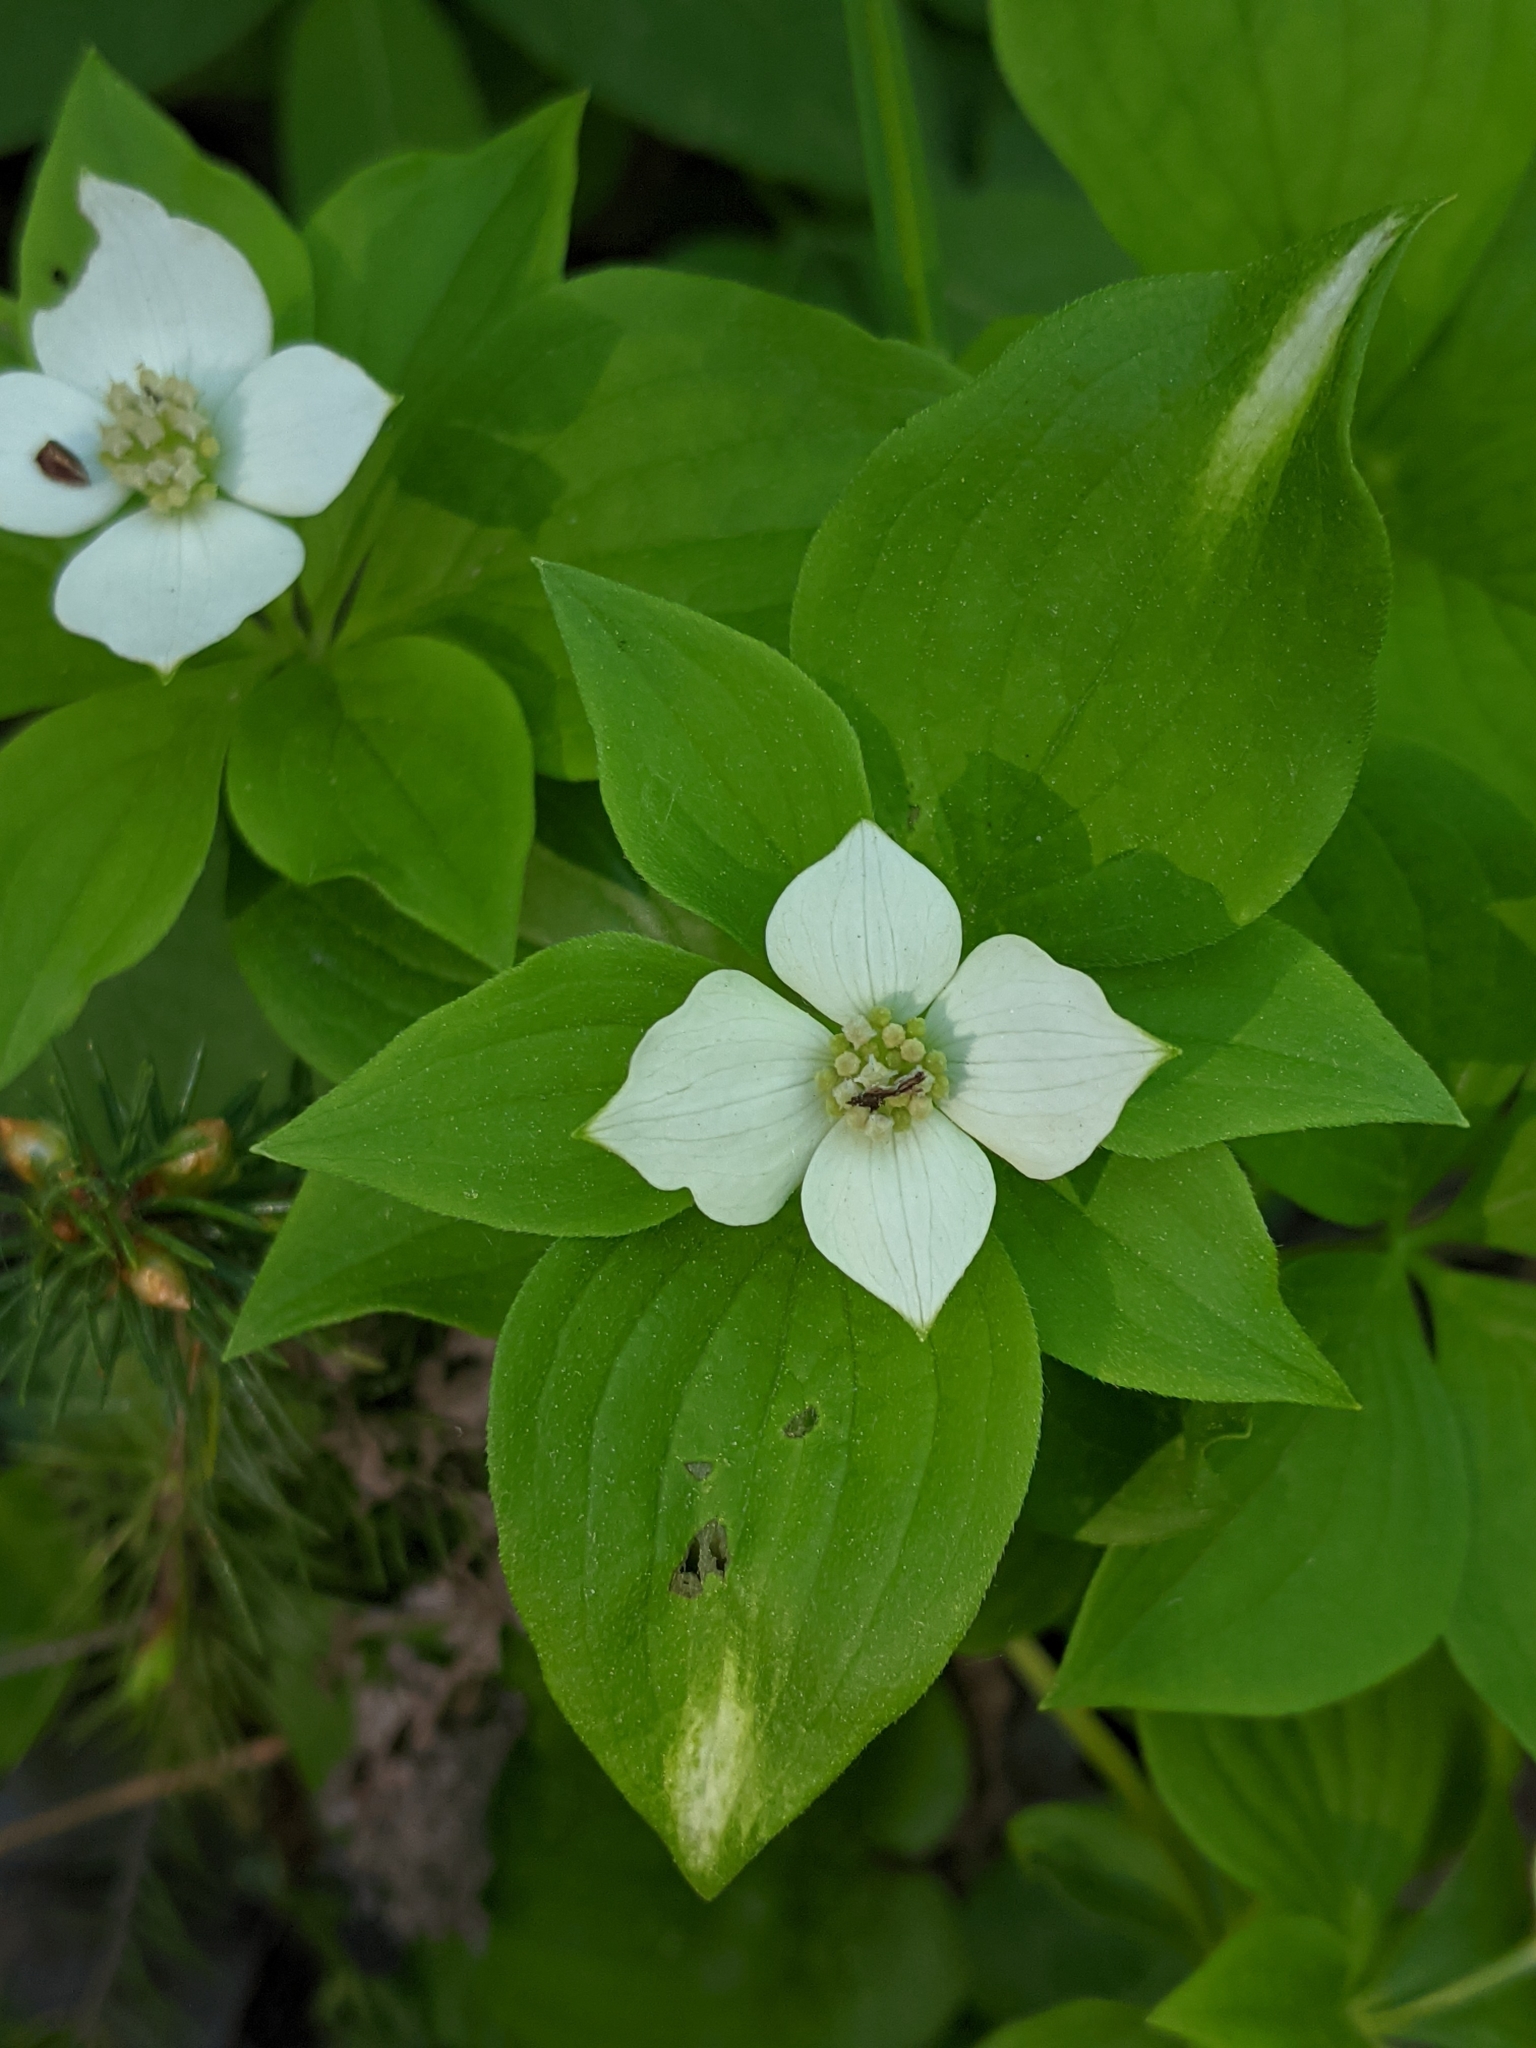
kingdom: Plantae
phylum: Tracheophyta
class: Magnoliopsida
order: Cornales
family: Cornaceae
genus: Cornus
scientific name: Cornus canadensis
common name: Creeping dogwood
